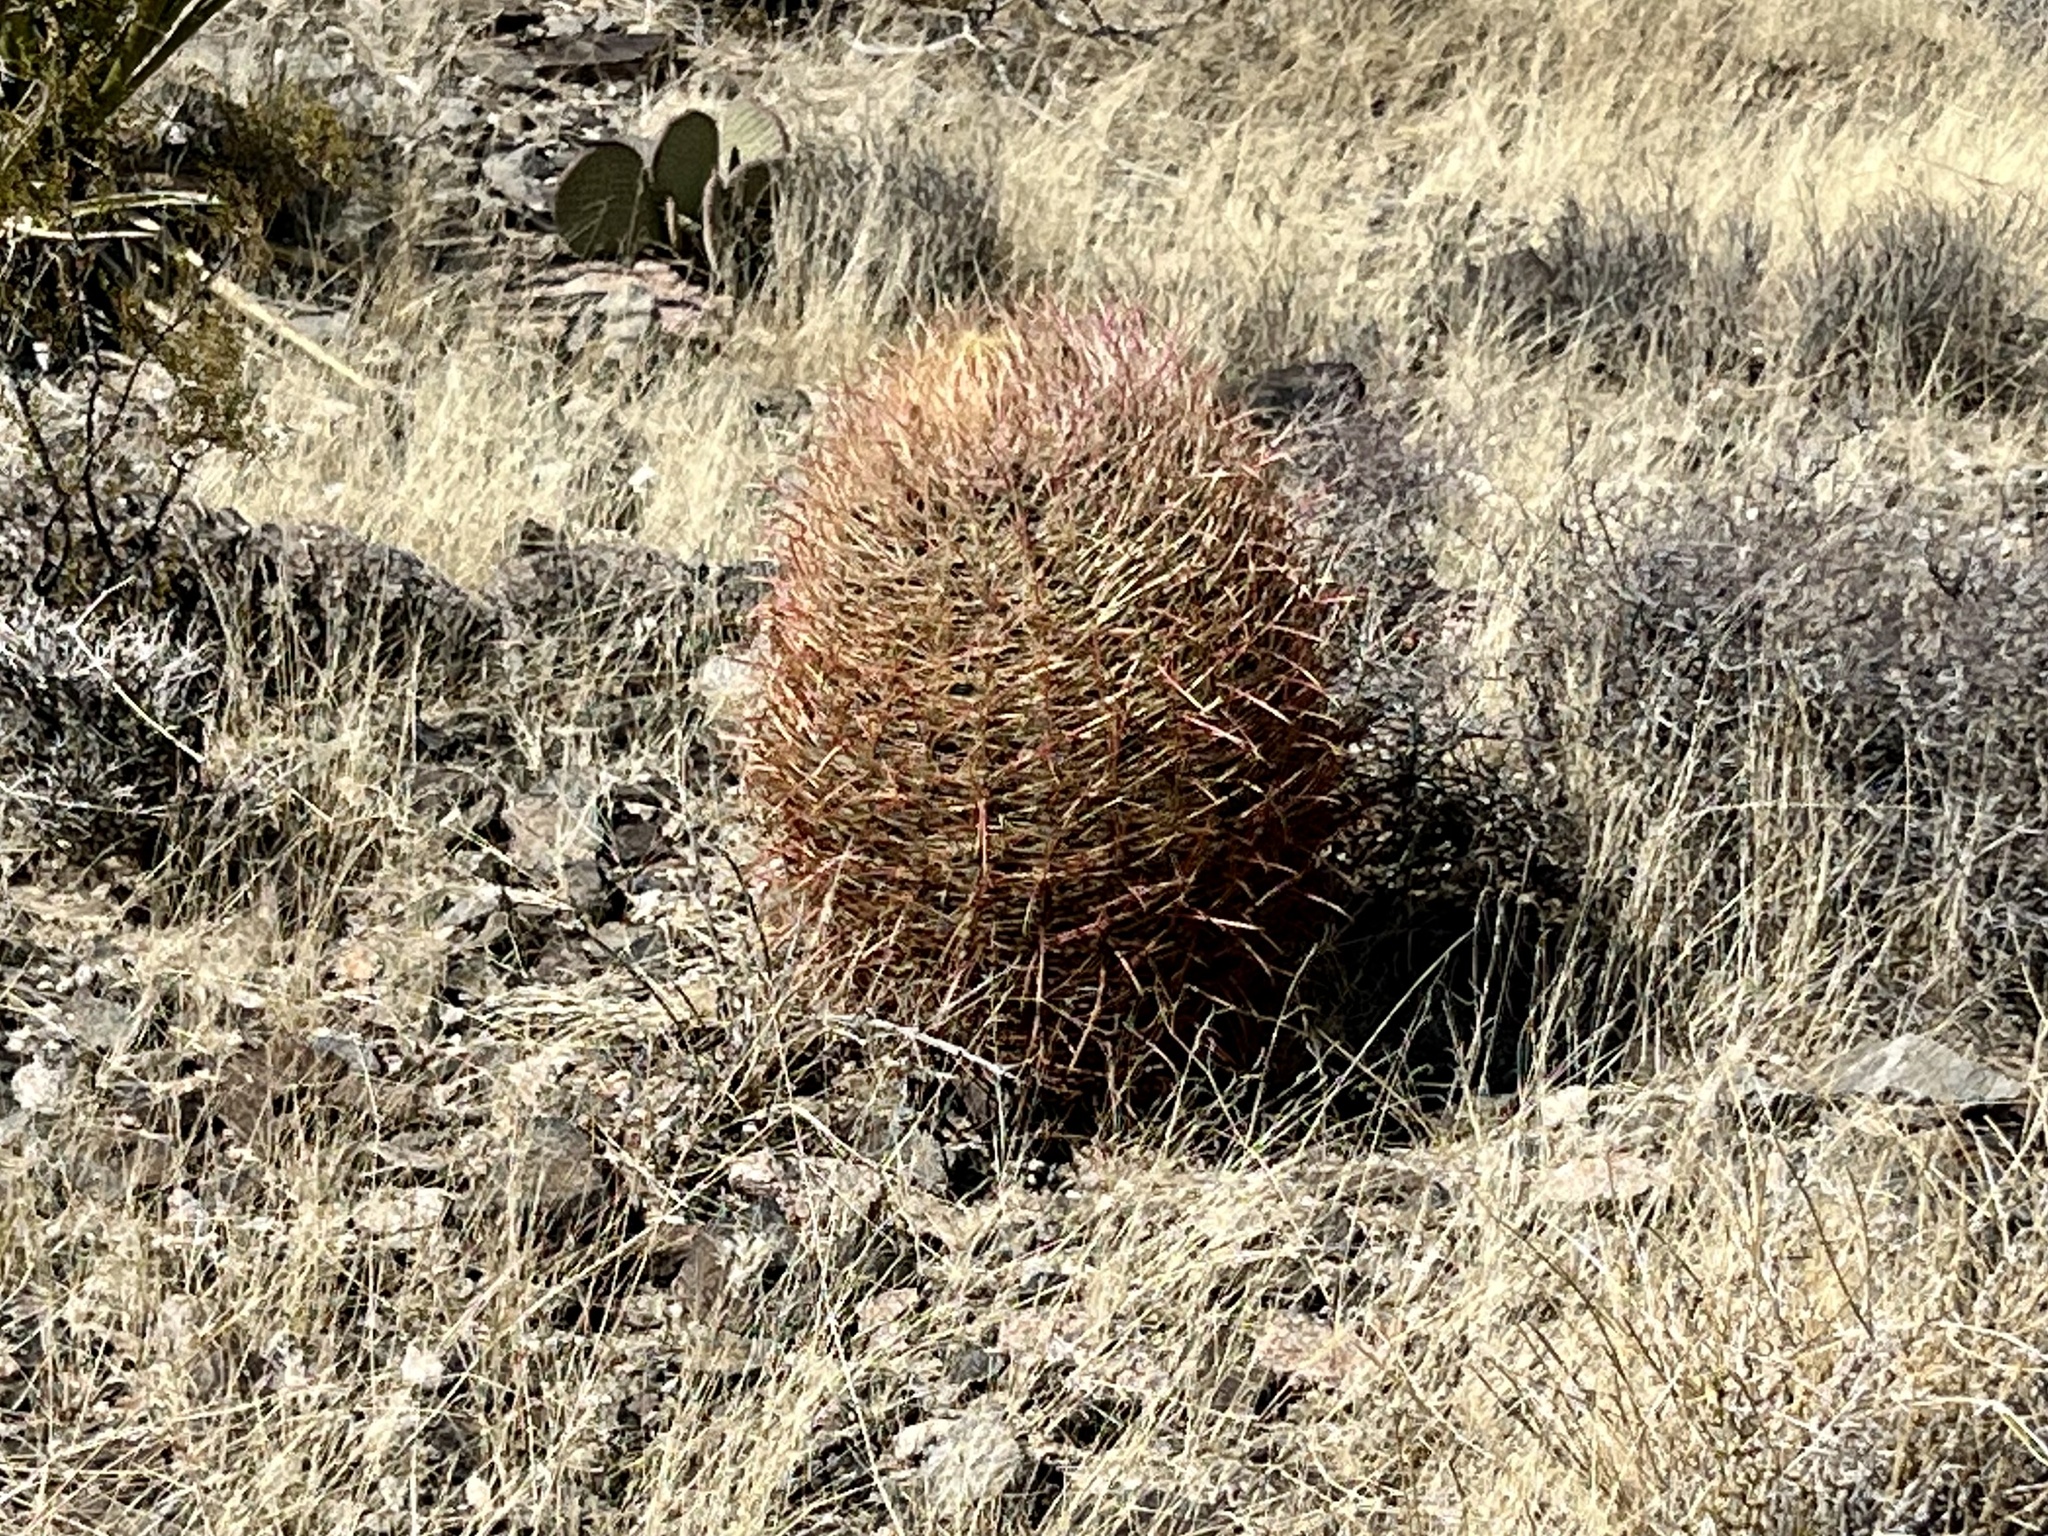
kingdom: Plantae
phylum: Tracheophyta
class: Magnoliopsida
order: Caryophyllales
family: Cactaceae
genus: Ferocactus
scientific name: Ferocactus cylindraceus
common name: California barrel cactus
